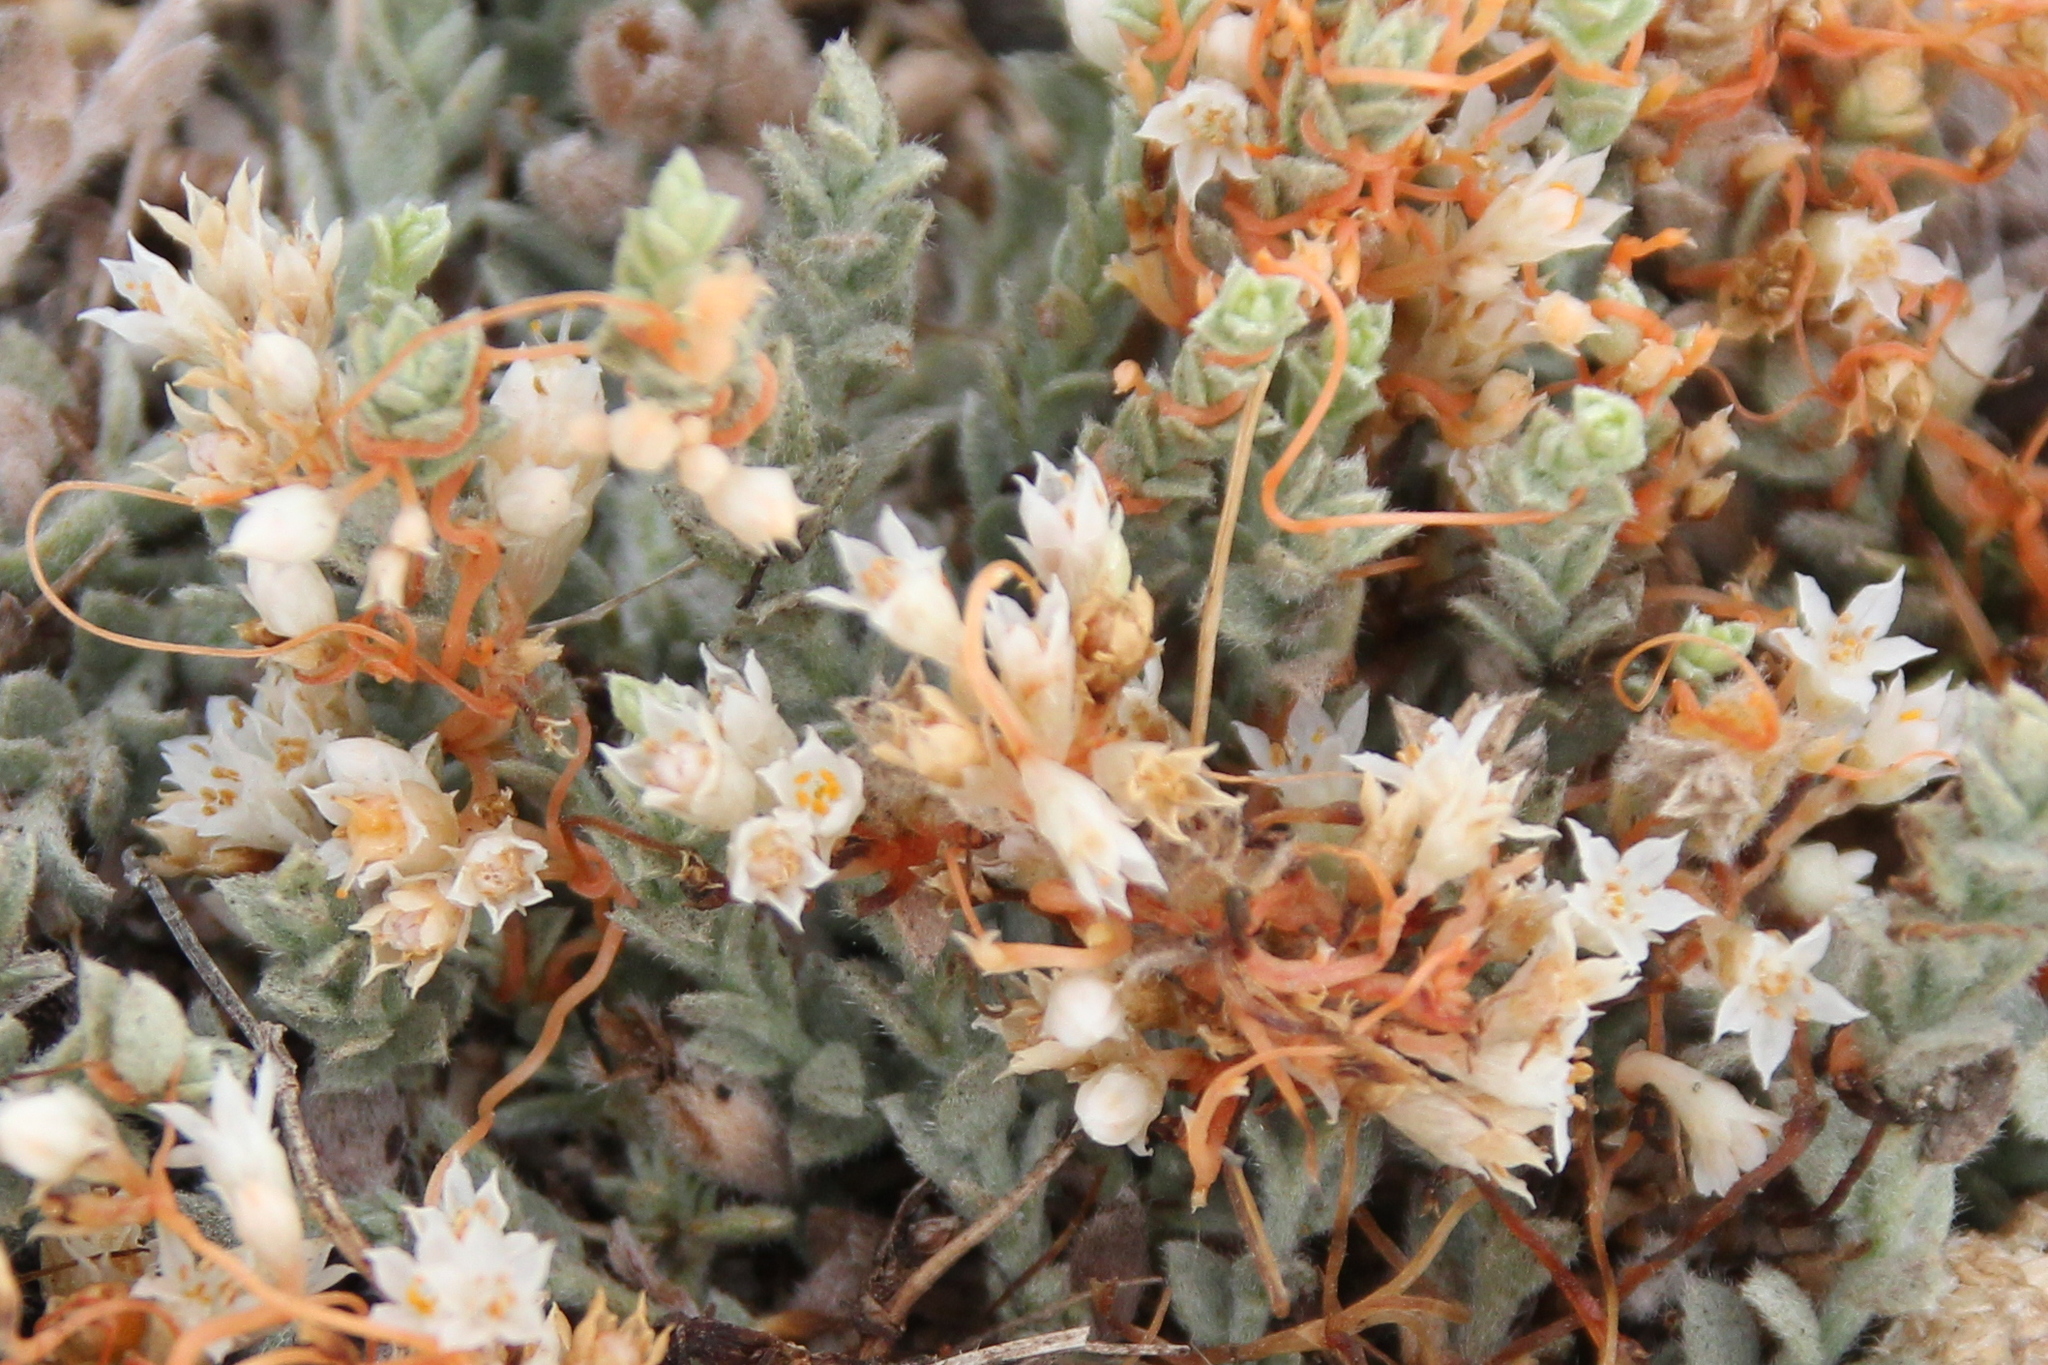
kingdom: Plantae
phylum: Tracheophyta
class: Magnoliopsida
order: Solanales
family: Convolvulaceae
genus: Cuscuta
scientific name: Cuscuta pacifica
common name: Large saltmarsh dodder
